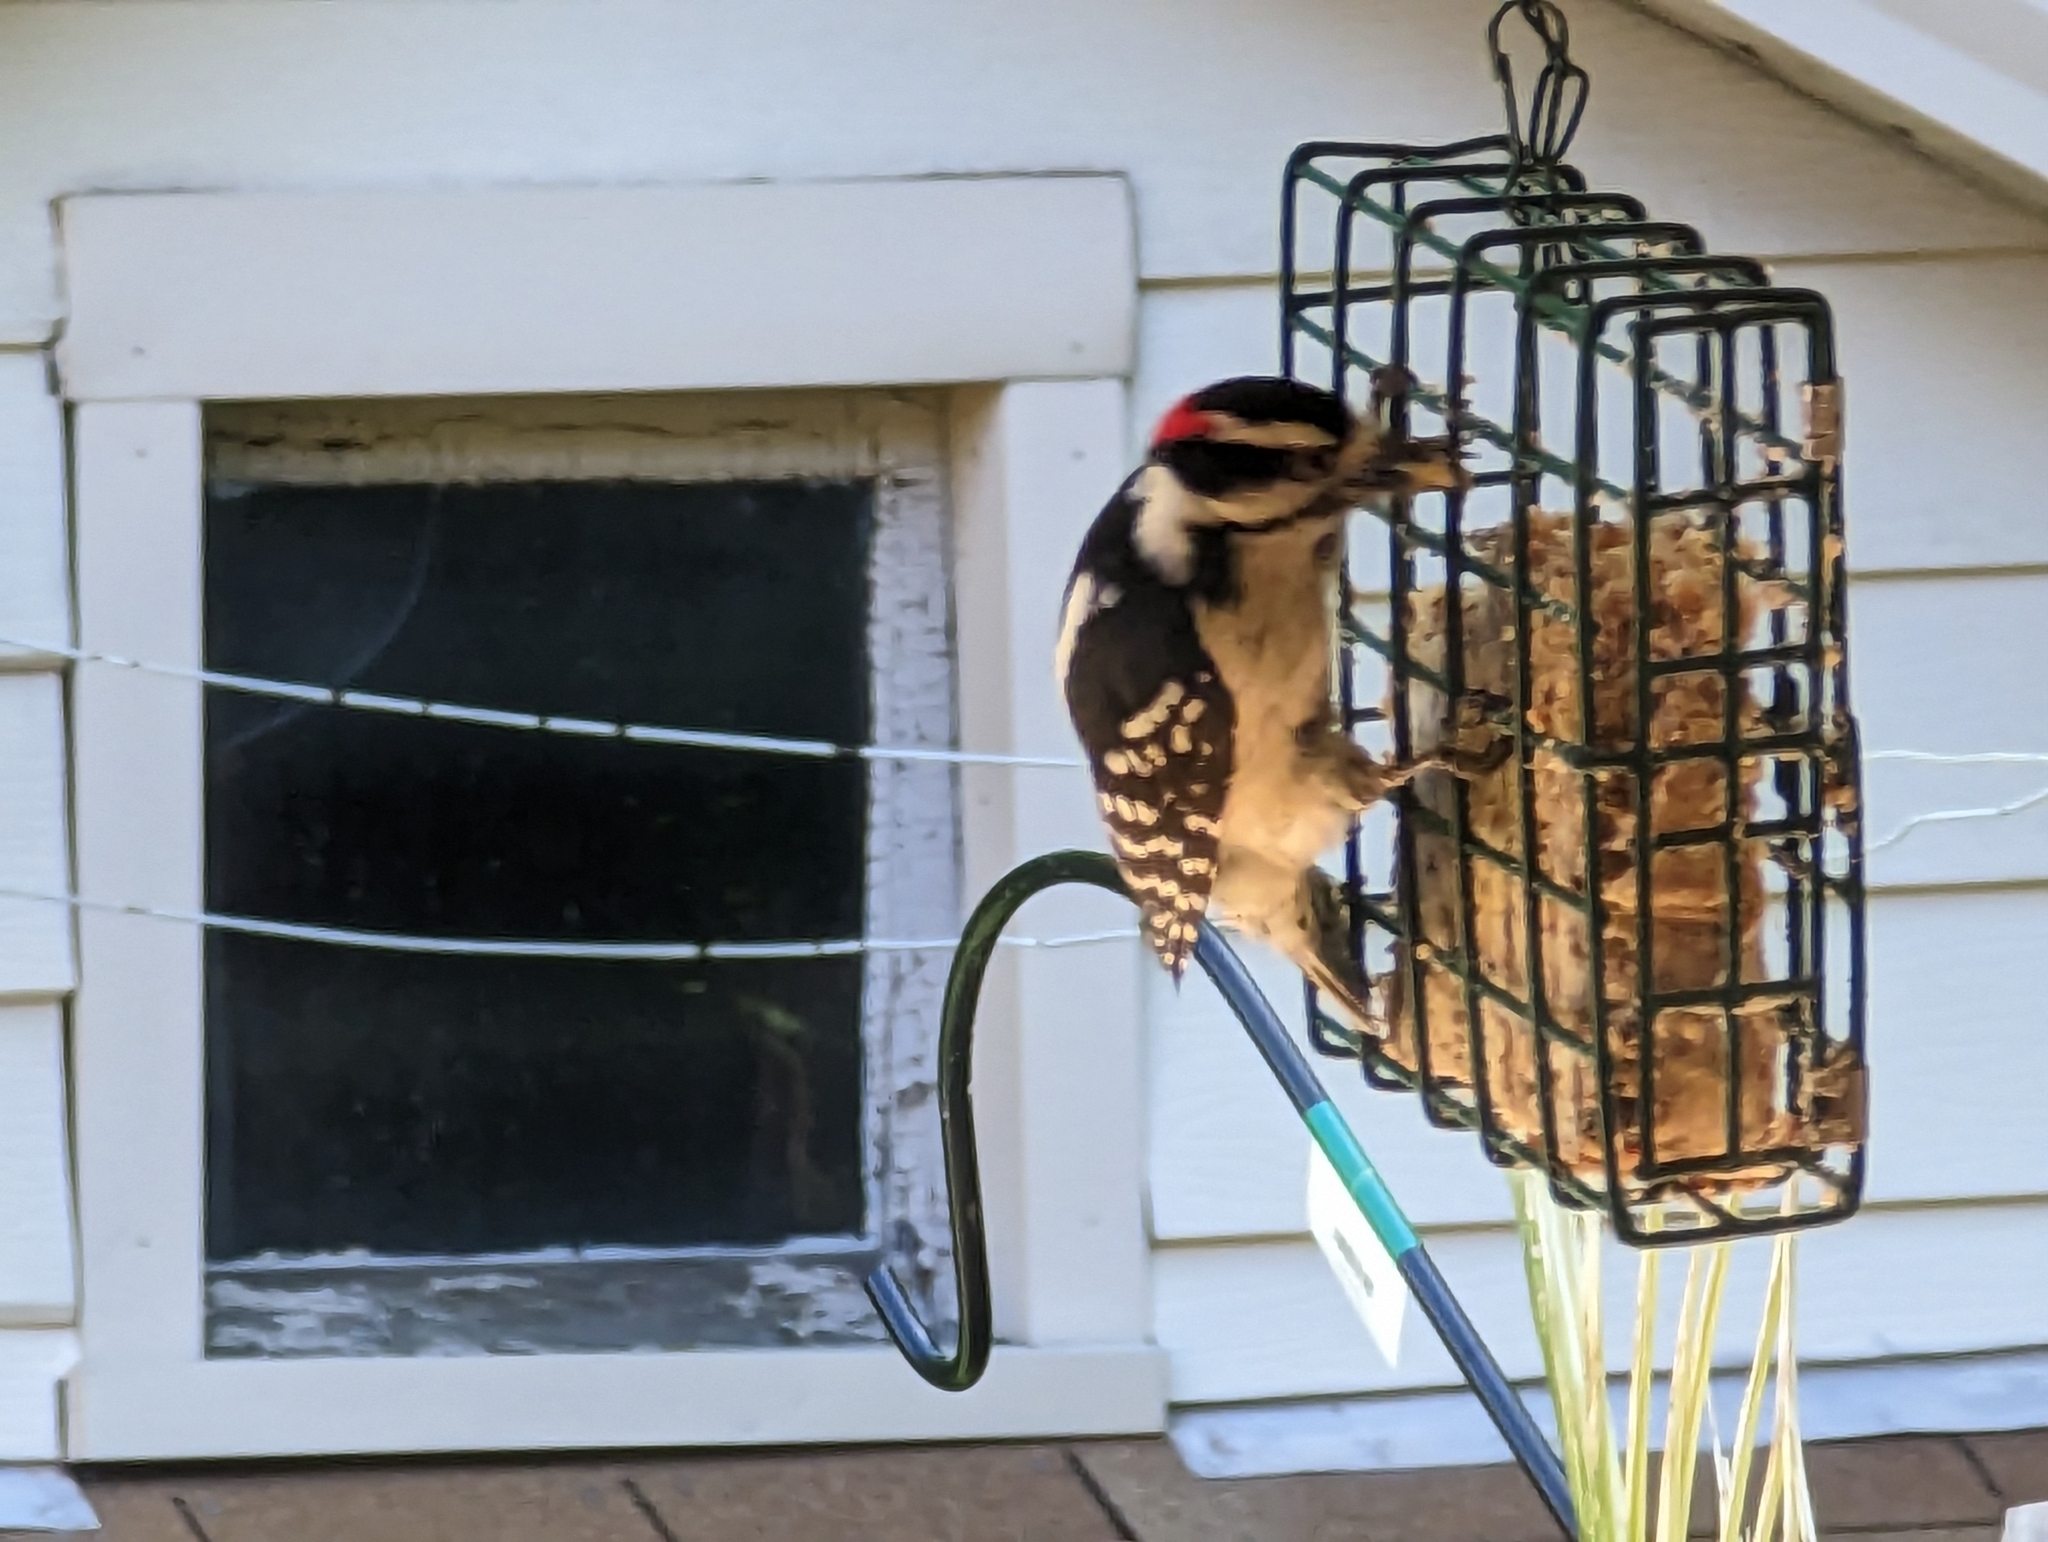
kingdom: Animalia
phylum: Chordata
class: Aves
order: Piciformes
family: Picidae
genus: Dryobates
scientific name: Dryobates pubescens
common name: Downy woodpecker
